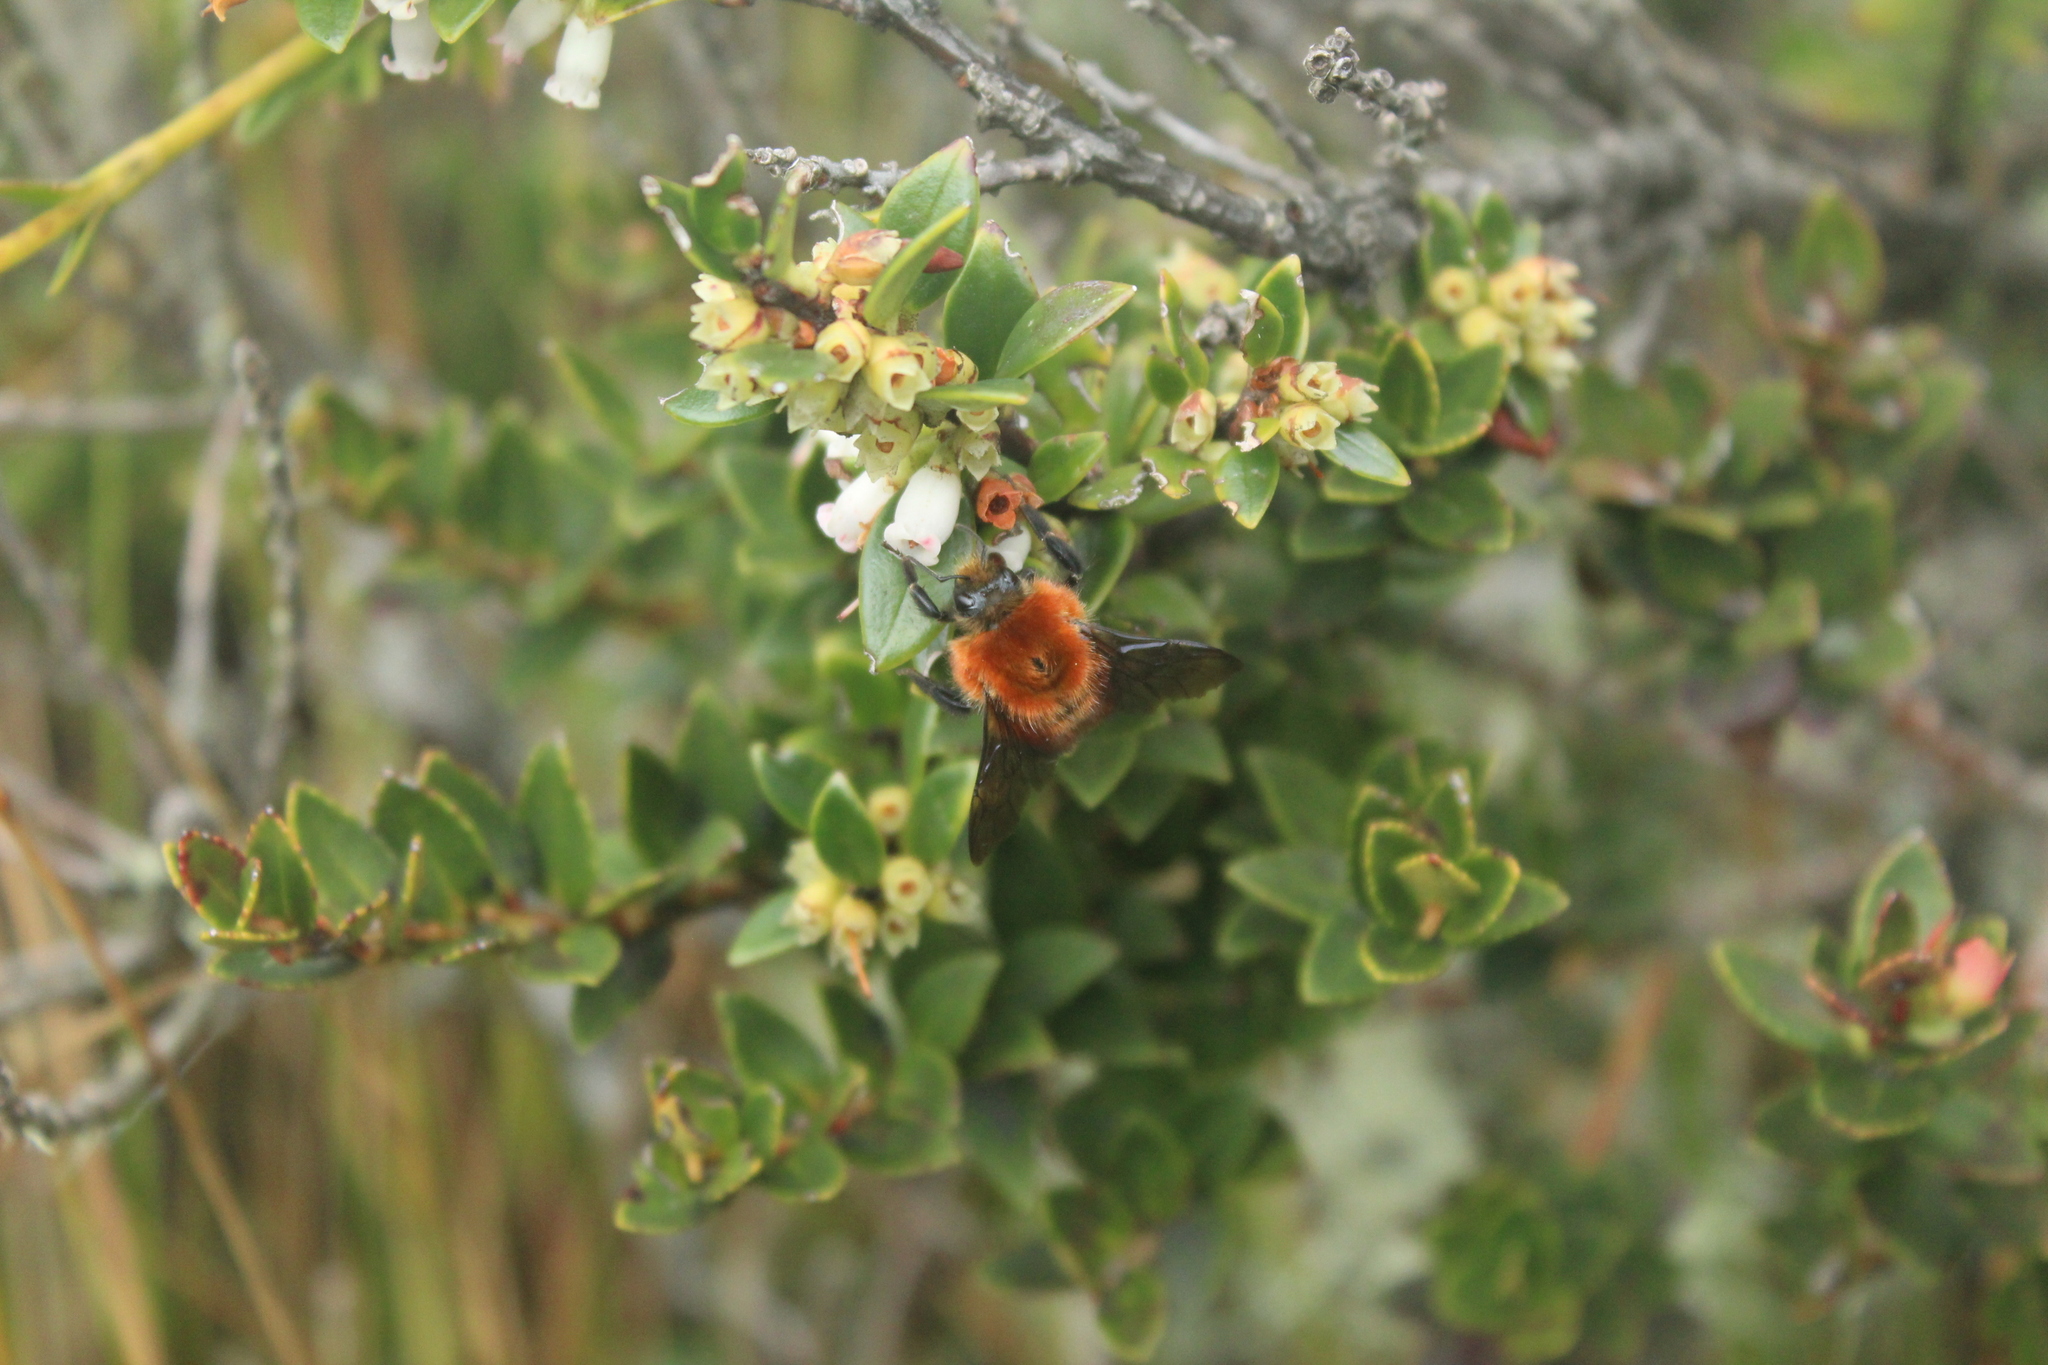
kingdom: Animalia
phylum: Arthropoda
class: Insecta
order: Hymenoptera
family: Apidae
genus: Bombus
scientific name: Bombus rubicundus
